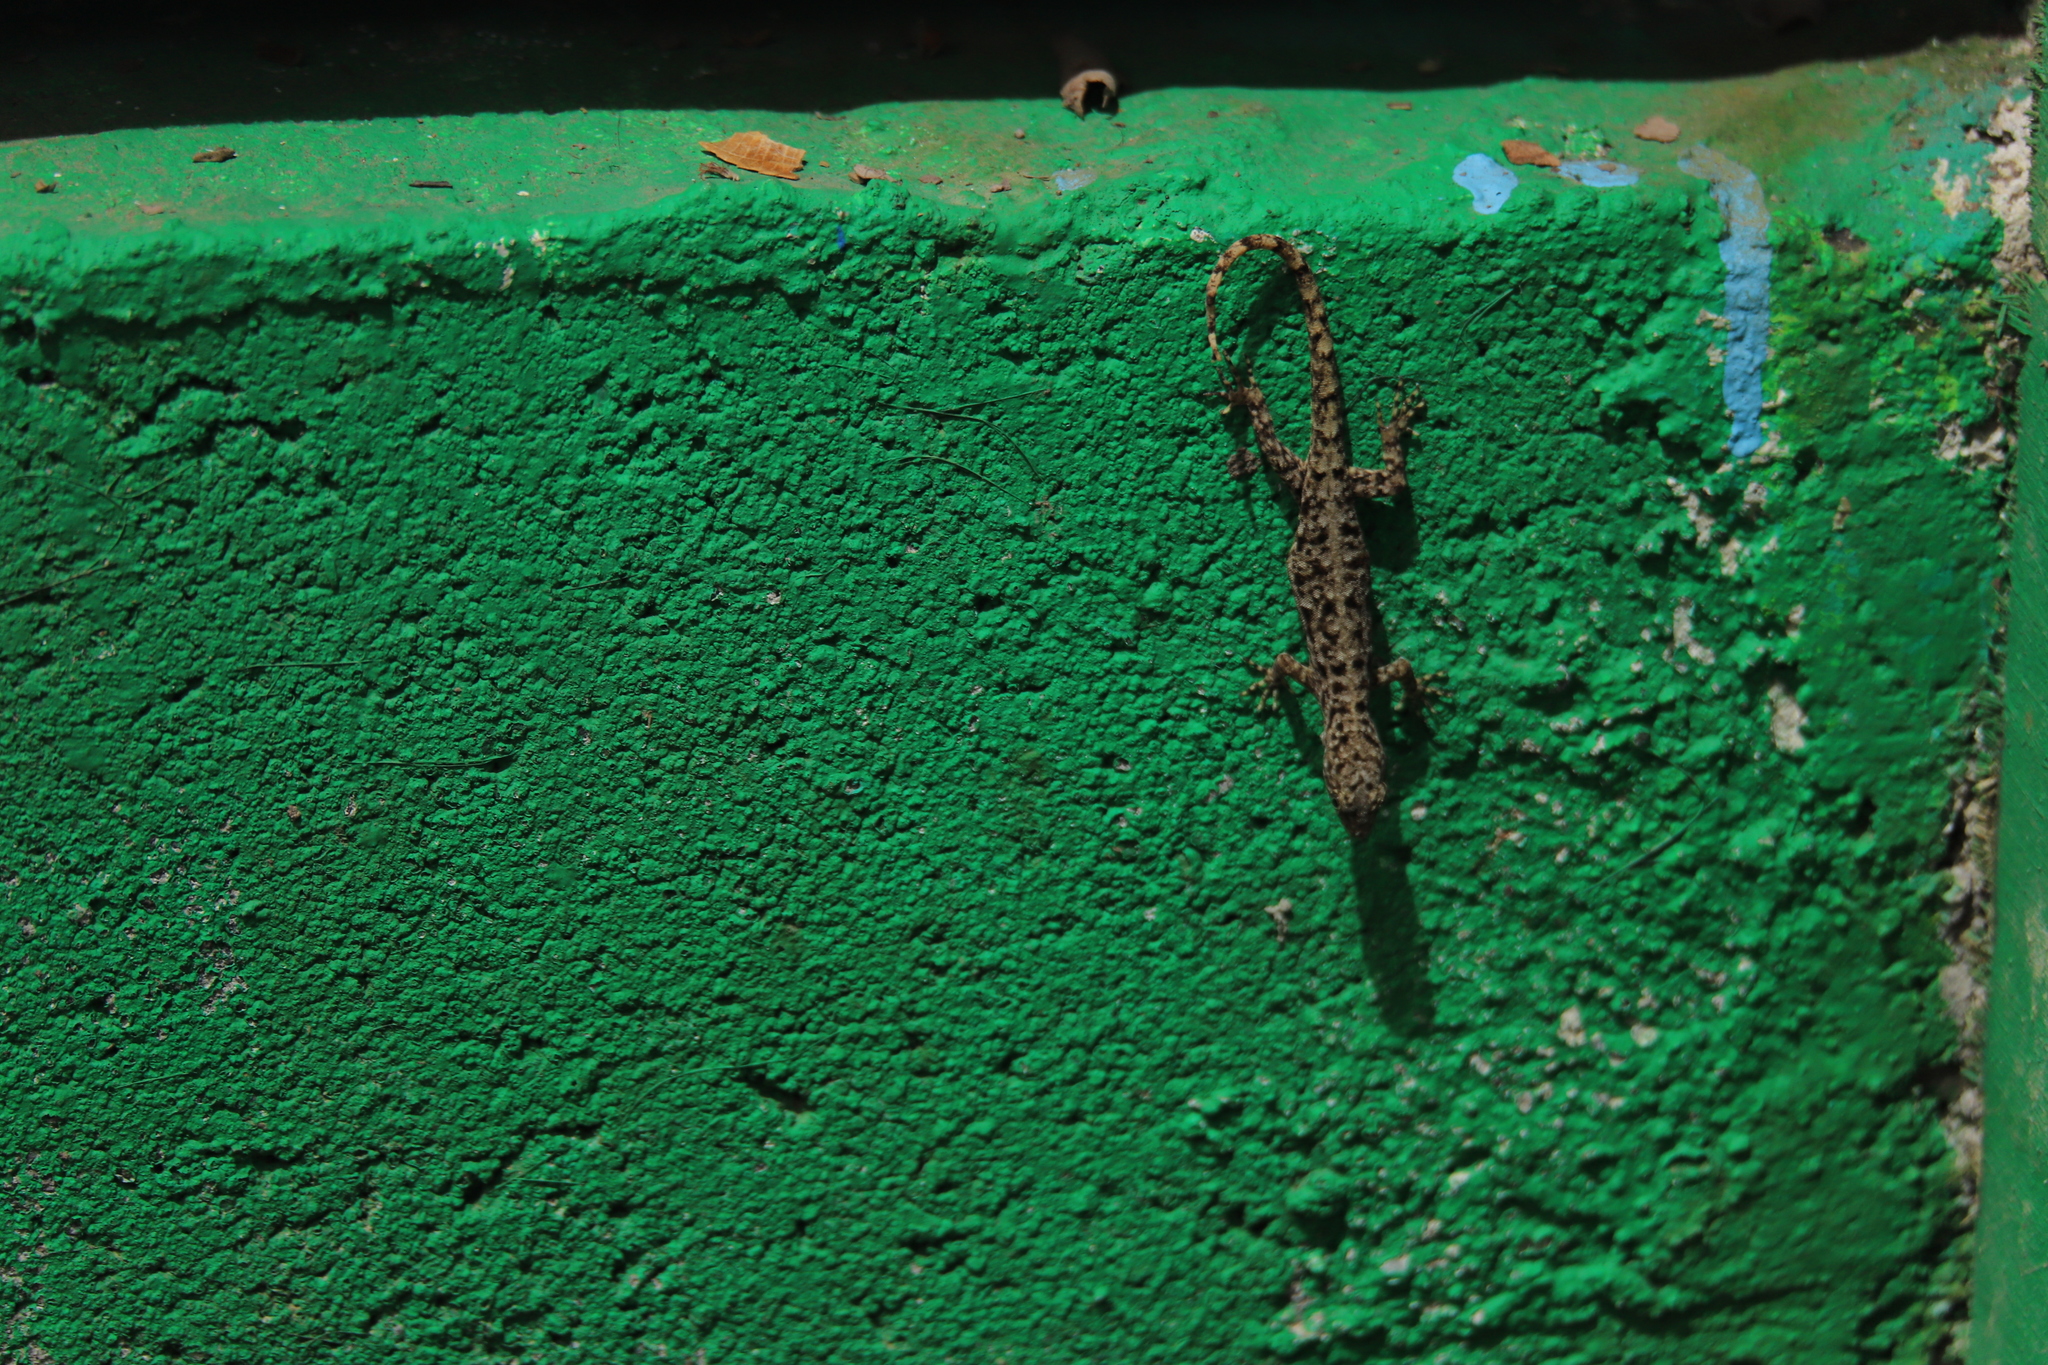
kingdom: Animalia
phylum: Chordata
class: Squamata
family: Sphaerodactylidae
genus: Gonatodes
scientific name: Gonatodes albogularis
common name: Yellow-headed gecko
